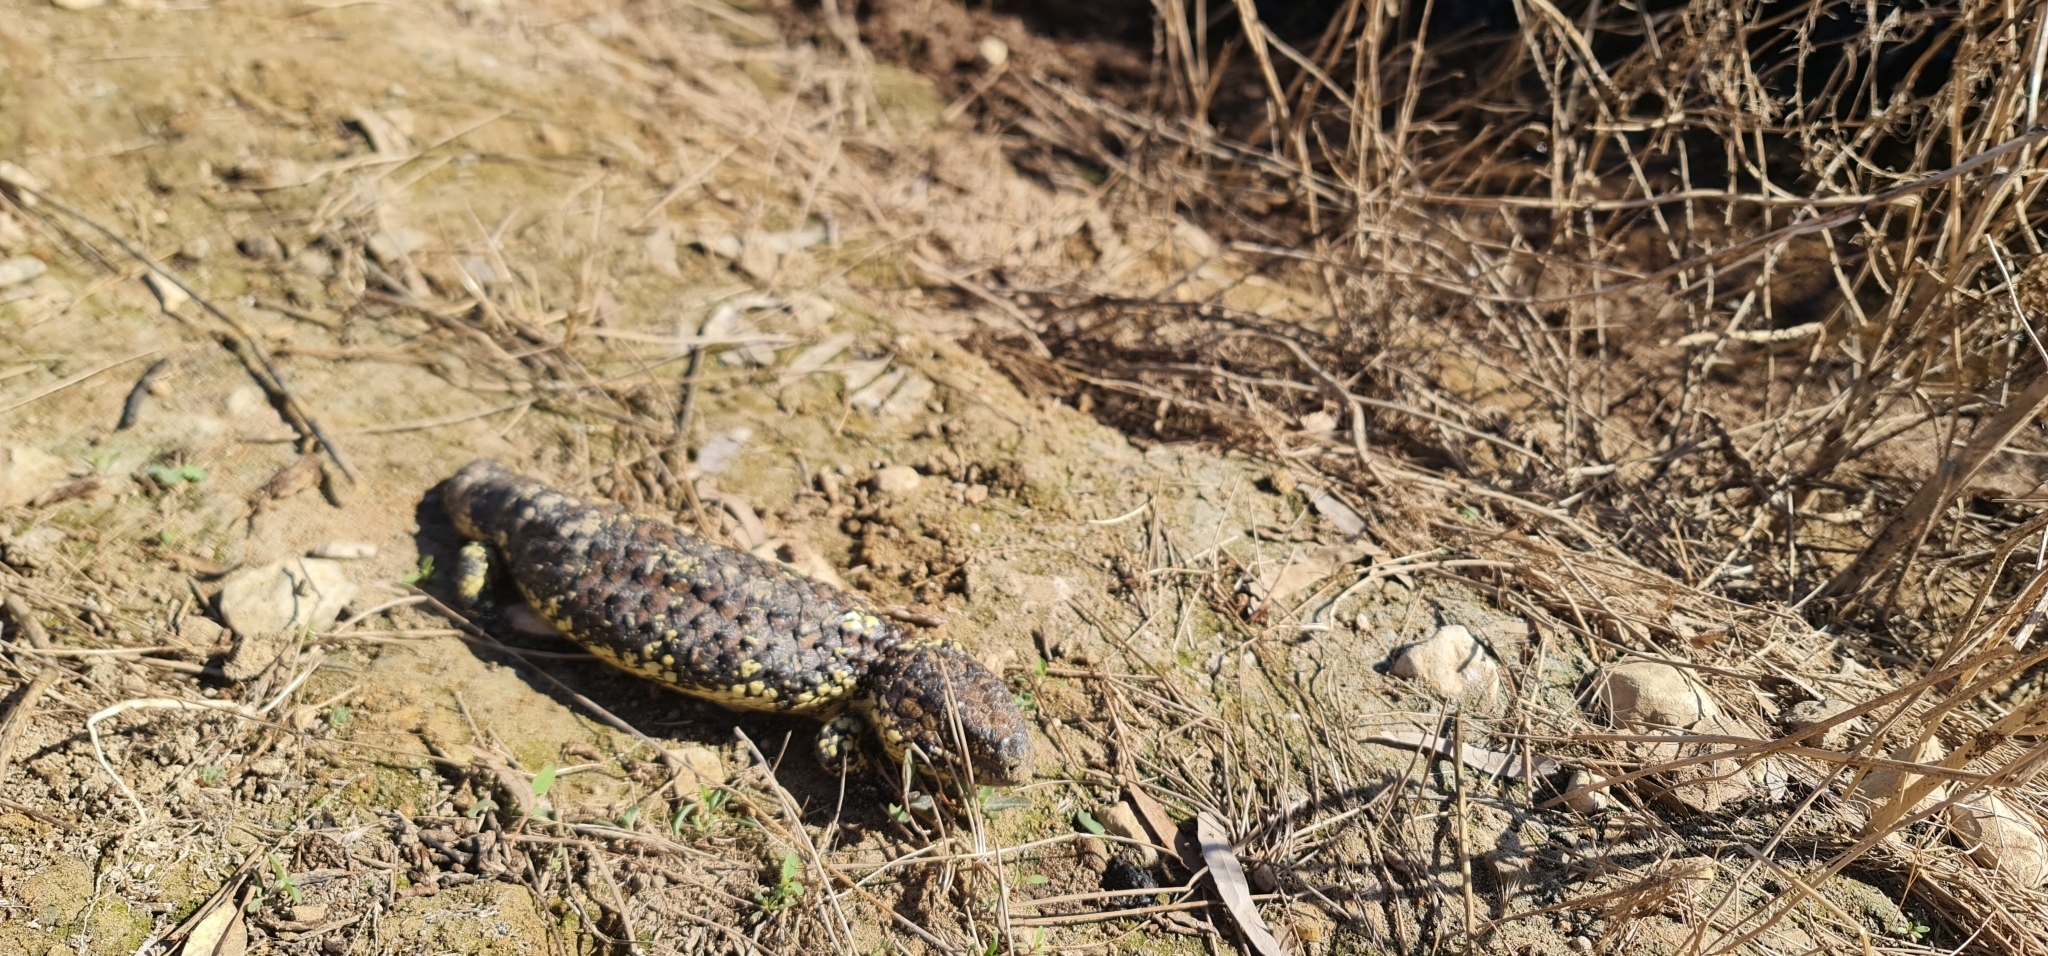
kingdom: Animalia
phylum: Chordata
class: Squamata
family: Scincidae
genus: Tiliqua
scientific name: Tiliqua rugosa
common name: Pinecone lizard
